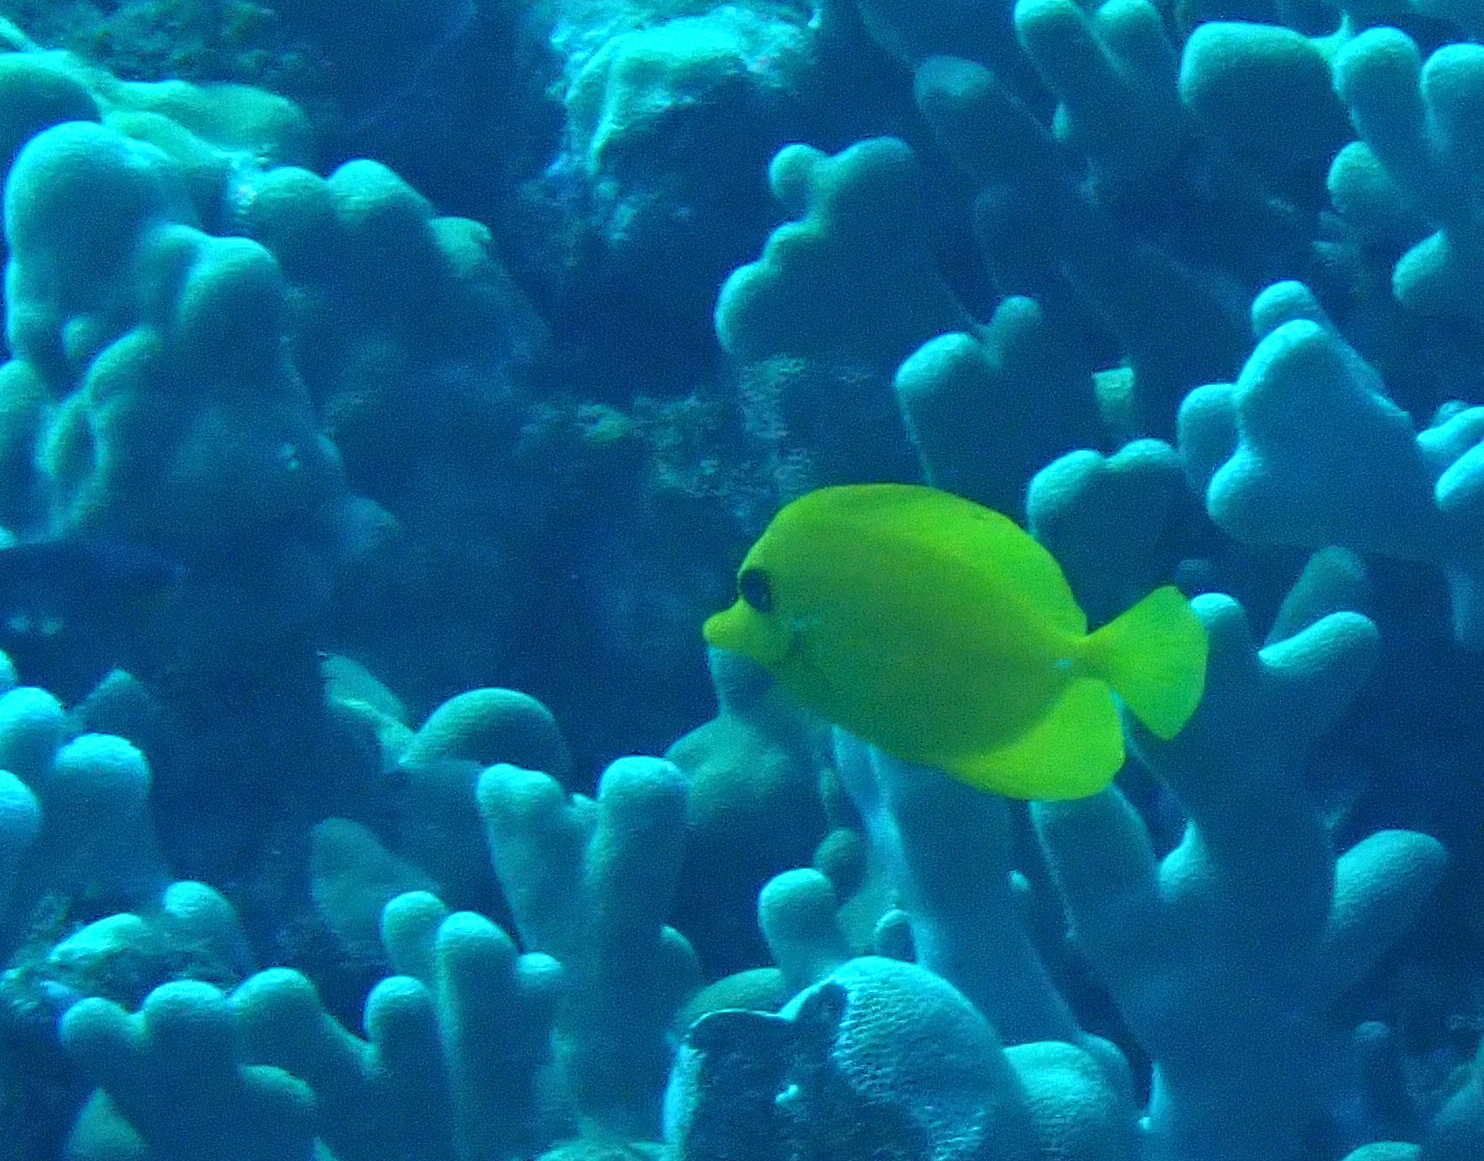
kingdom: Animalia
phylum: Chordata
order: Perciformes
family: Acanthuridae
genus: Zebrasoma
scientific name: Zebrasoma flavescens
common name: Yellow tang
